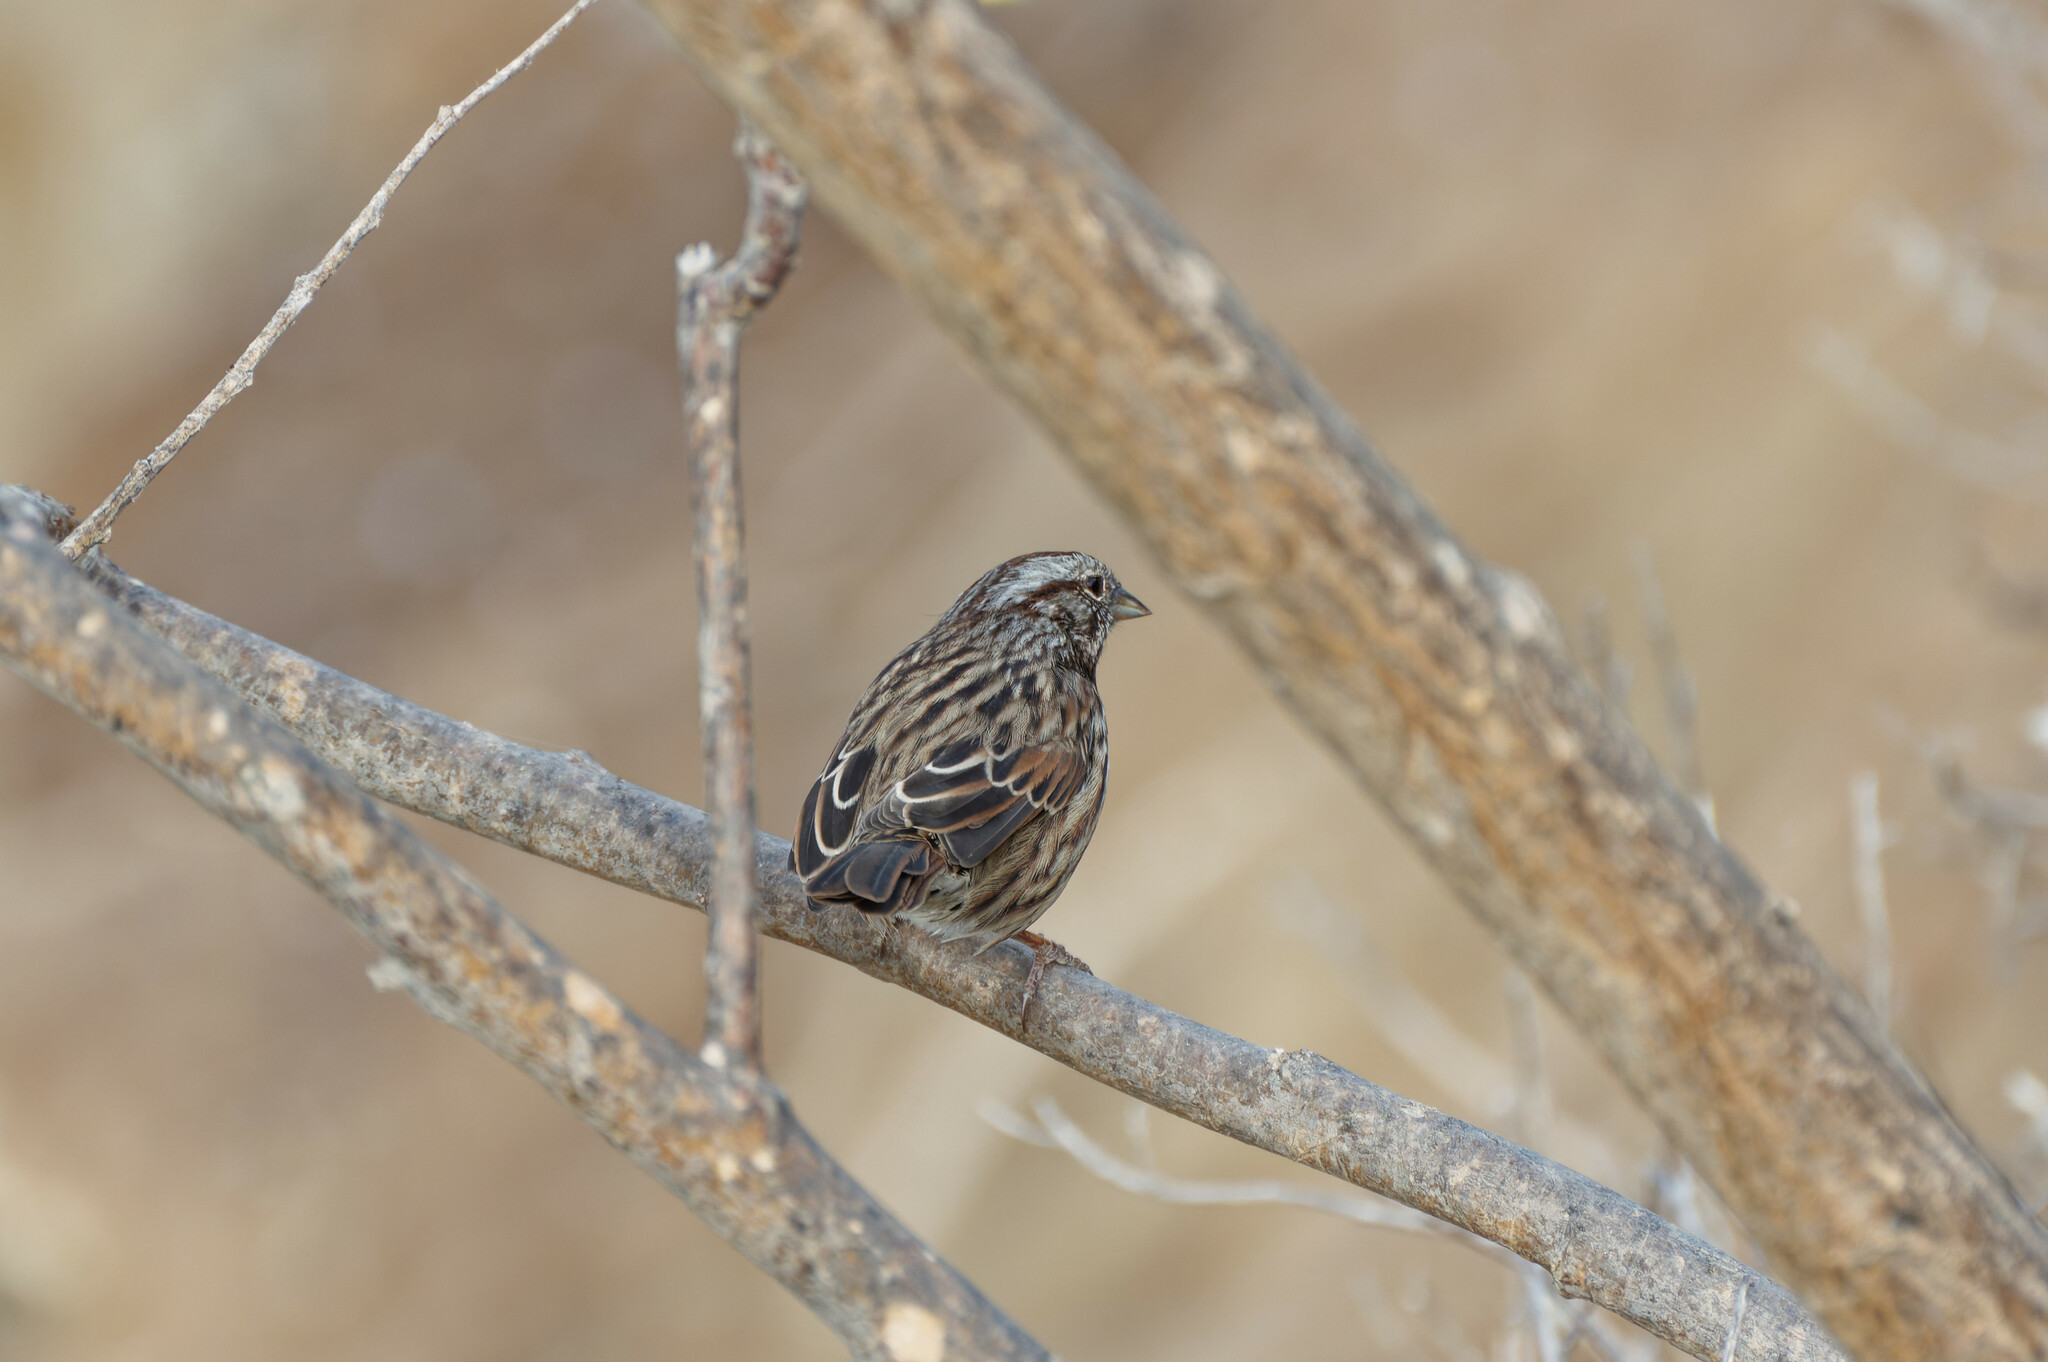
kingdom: Animalia
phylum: Chordata
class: Aves
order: Passeriformes
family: Passerellidae
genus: Melospiza
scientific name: Melospiza melodia
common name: Song sparrow
